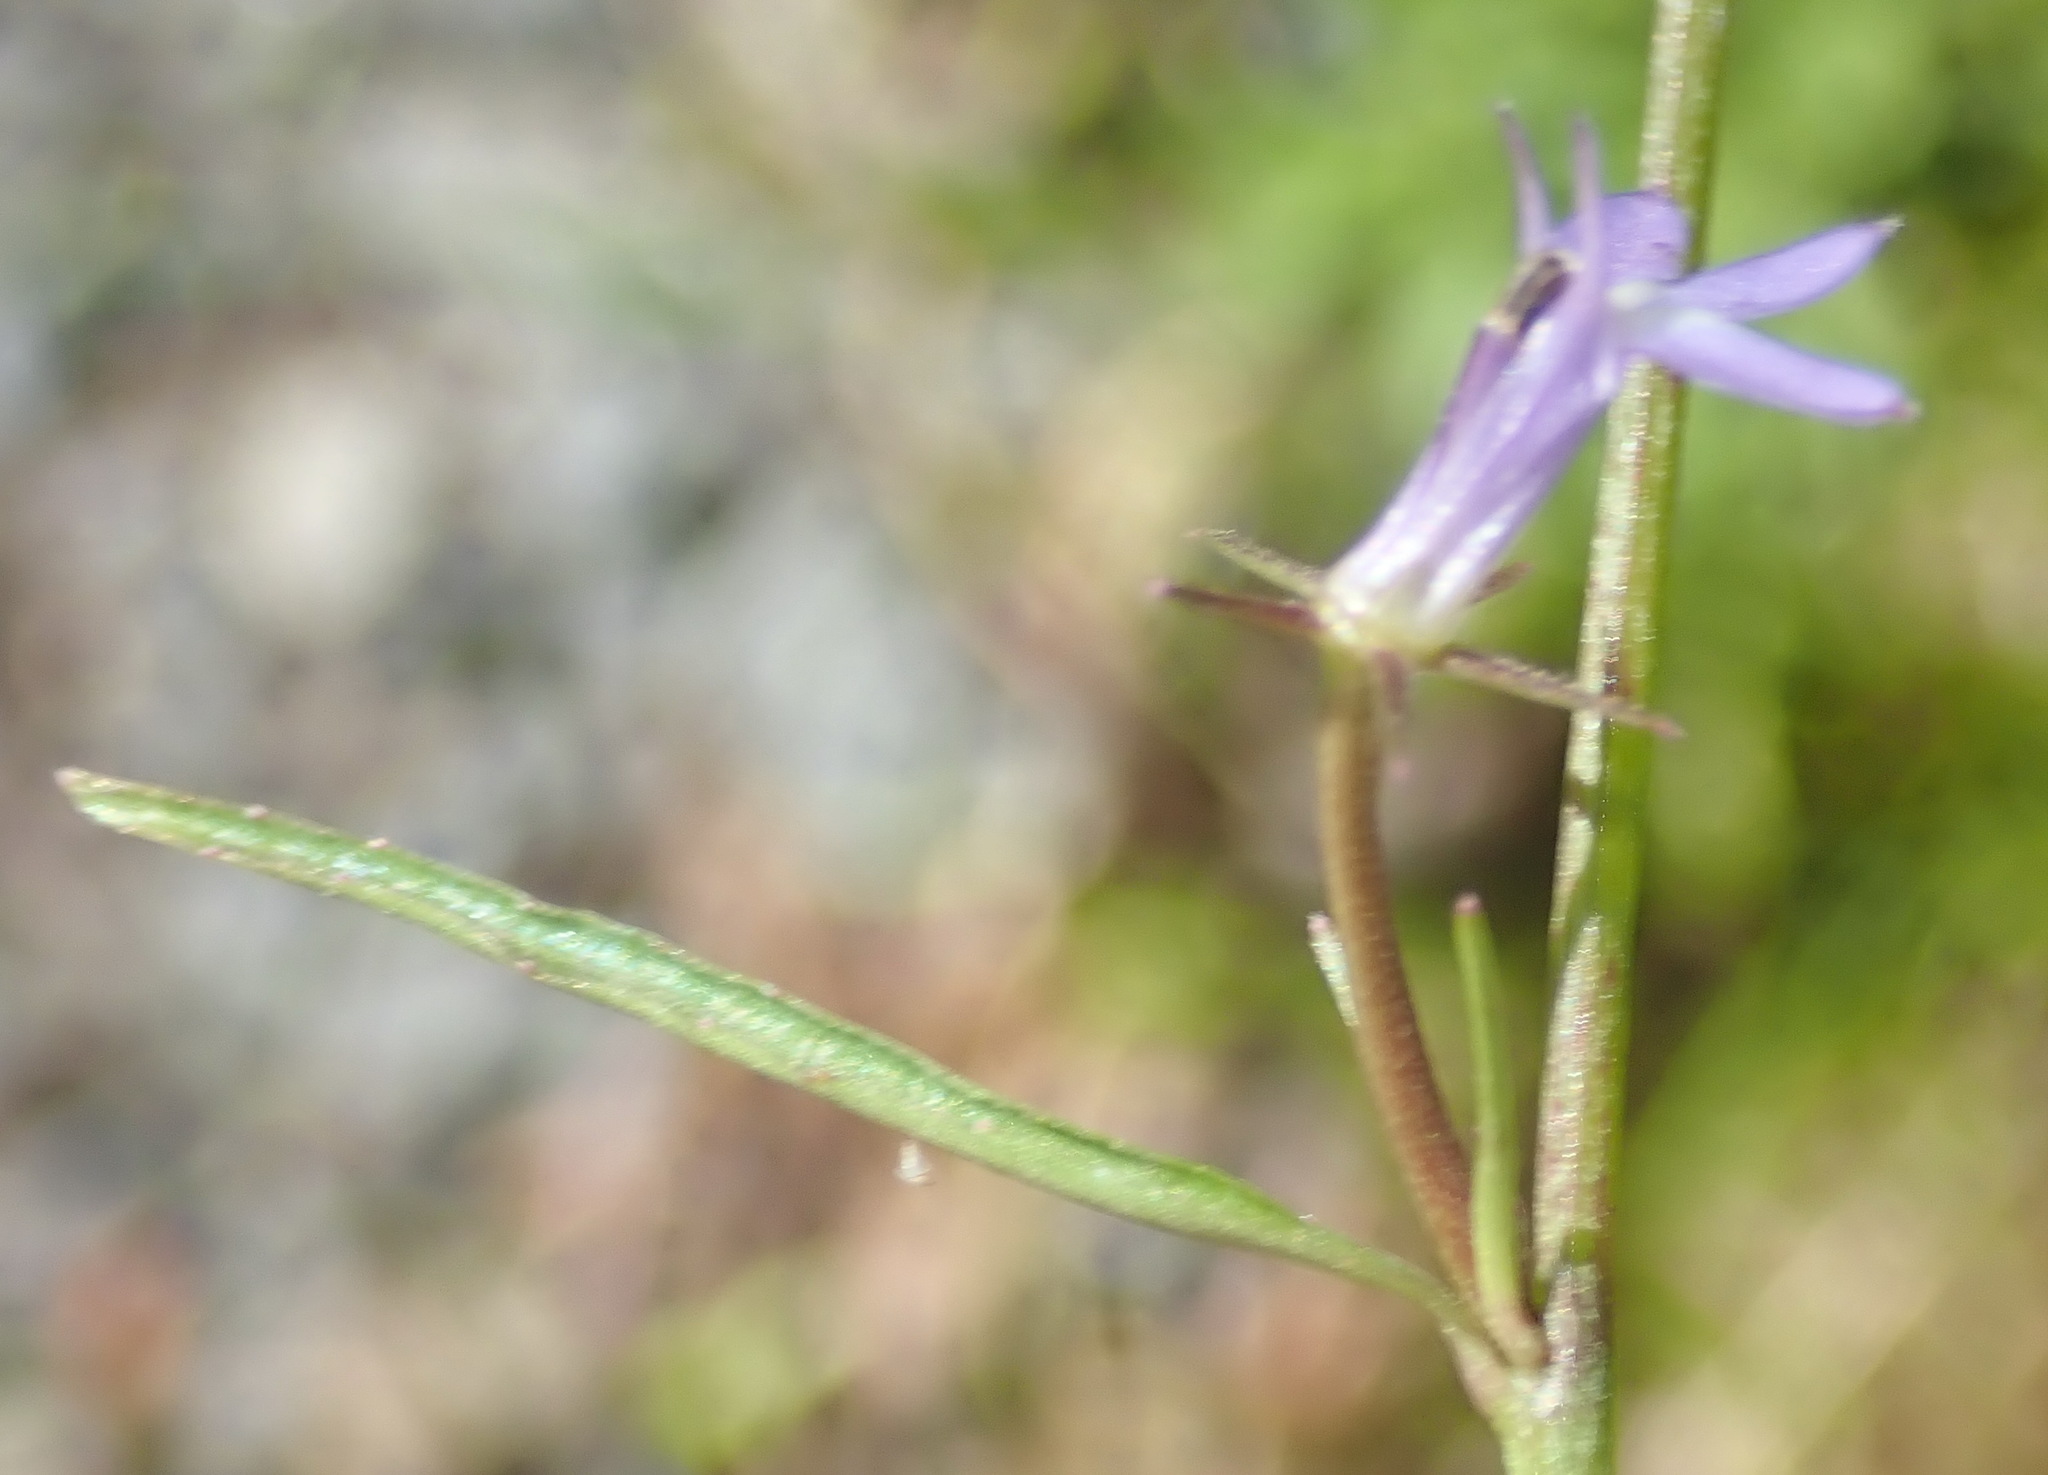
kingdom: Plantae
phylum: Tracheophyta
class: Magnoliopsida
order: Asterales
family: Campanulaceae
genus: Grammatotheca
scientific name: Grammatotheca bergiana
